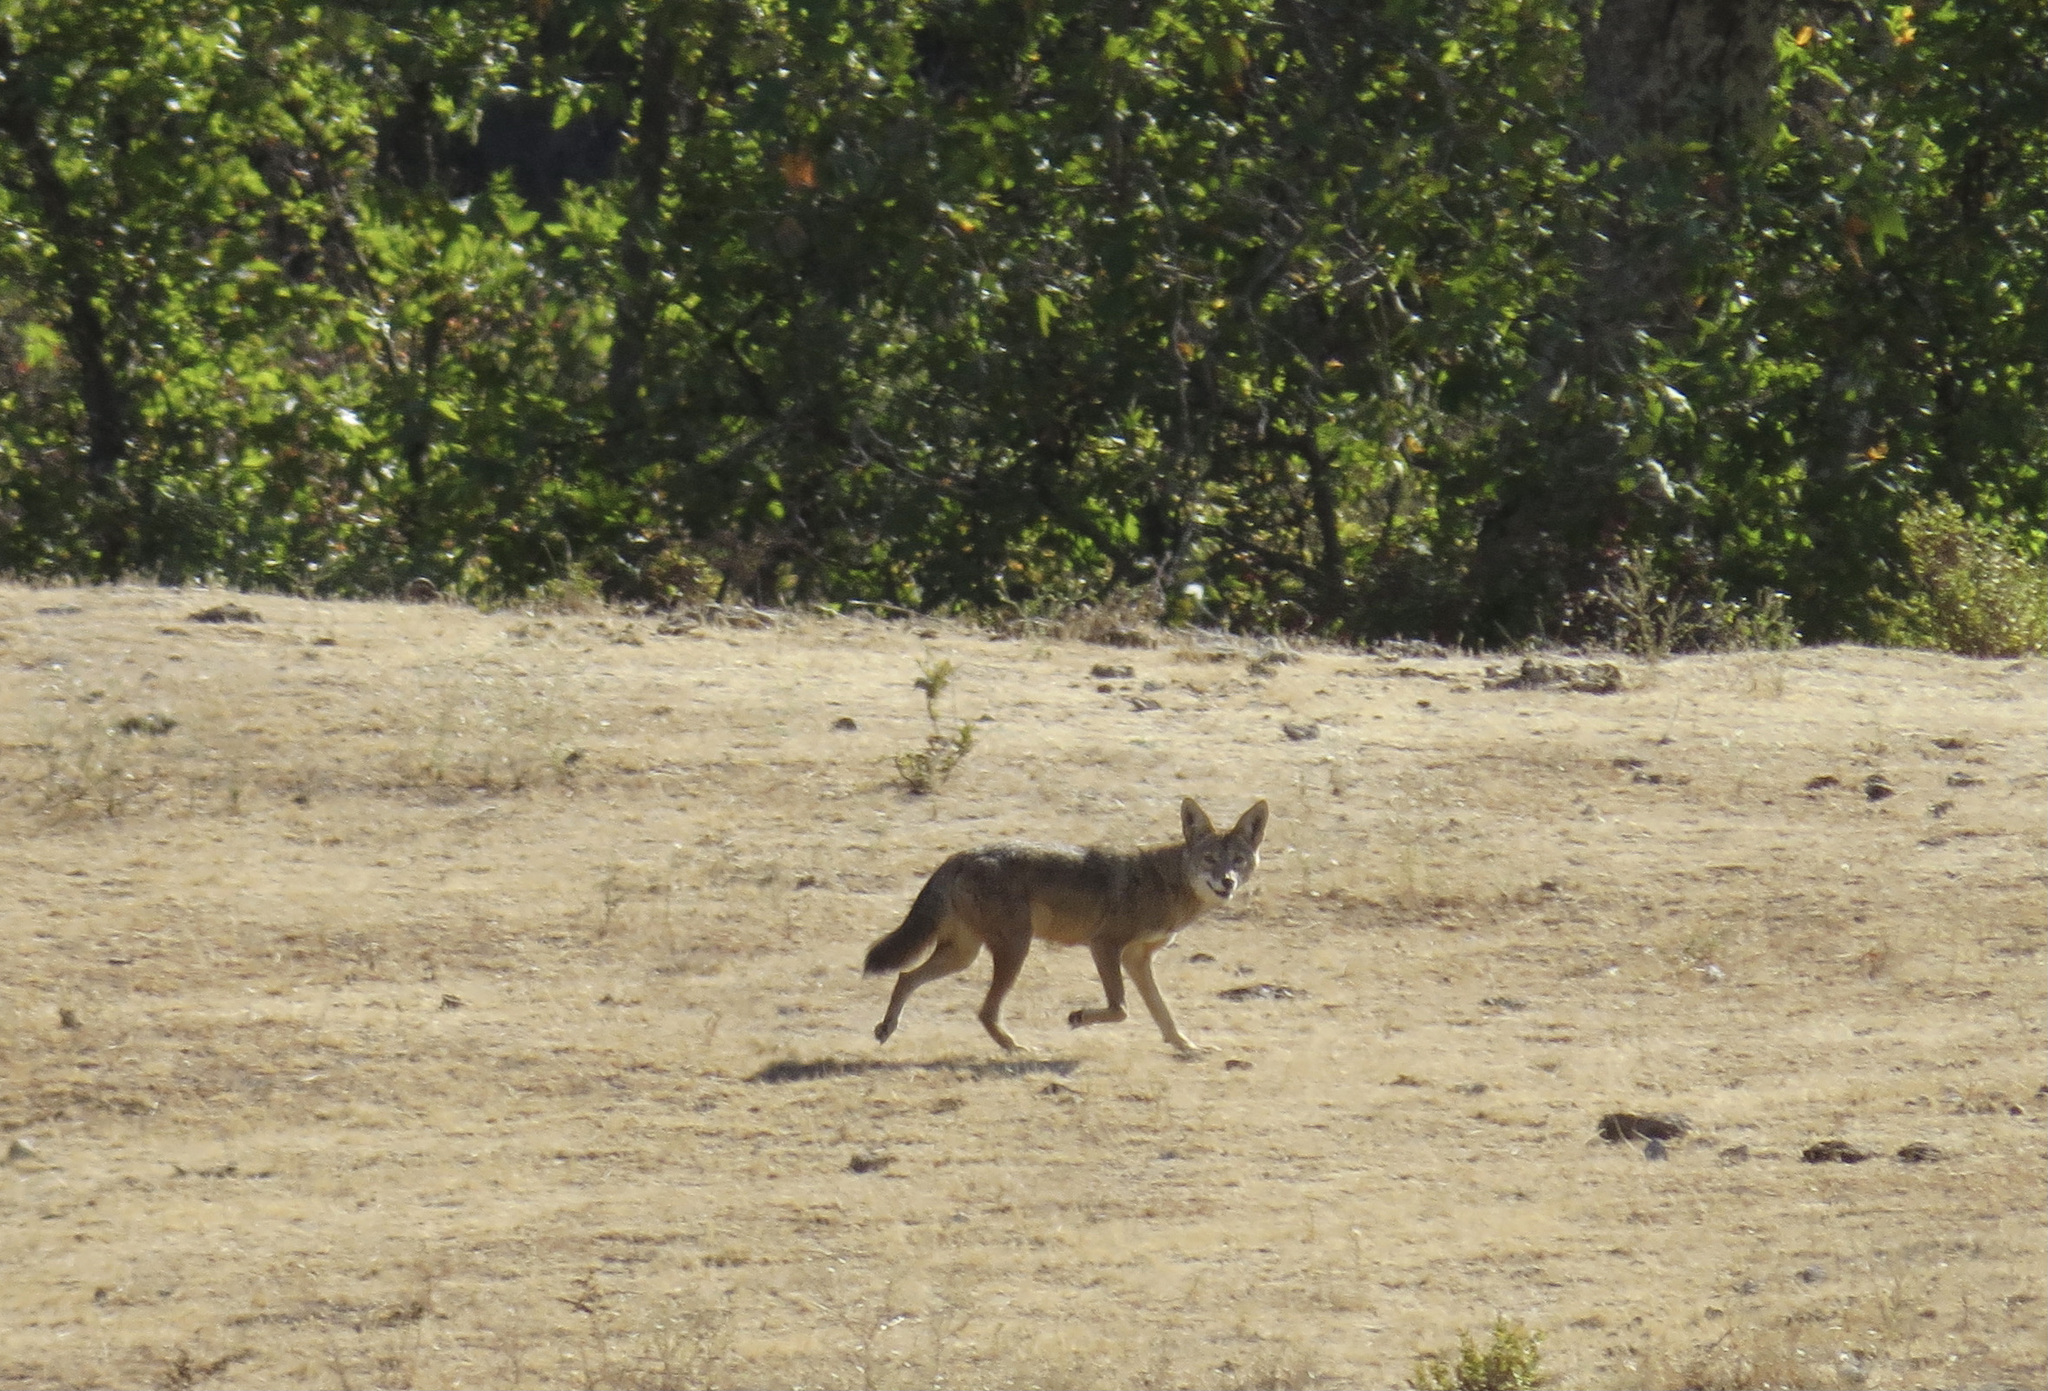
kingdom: Animalia
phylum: Chordata
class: Mammalia
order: Carnivora
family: Canidae
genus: Canis
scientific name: Canis latrans
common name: Coyote
